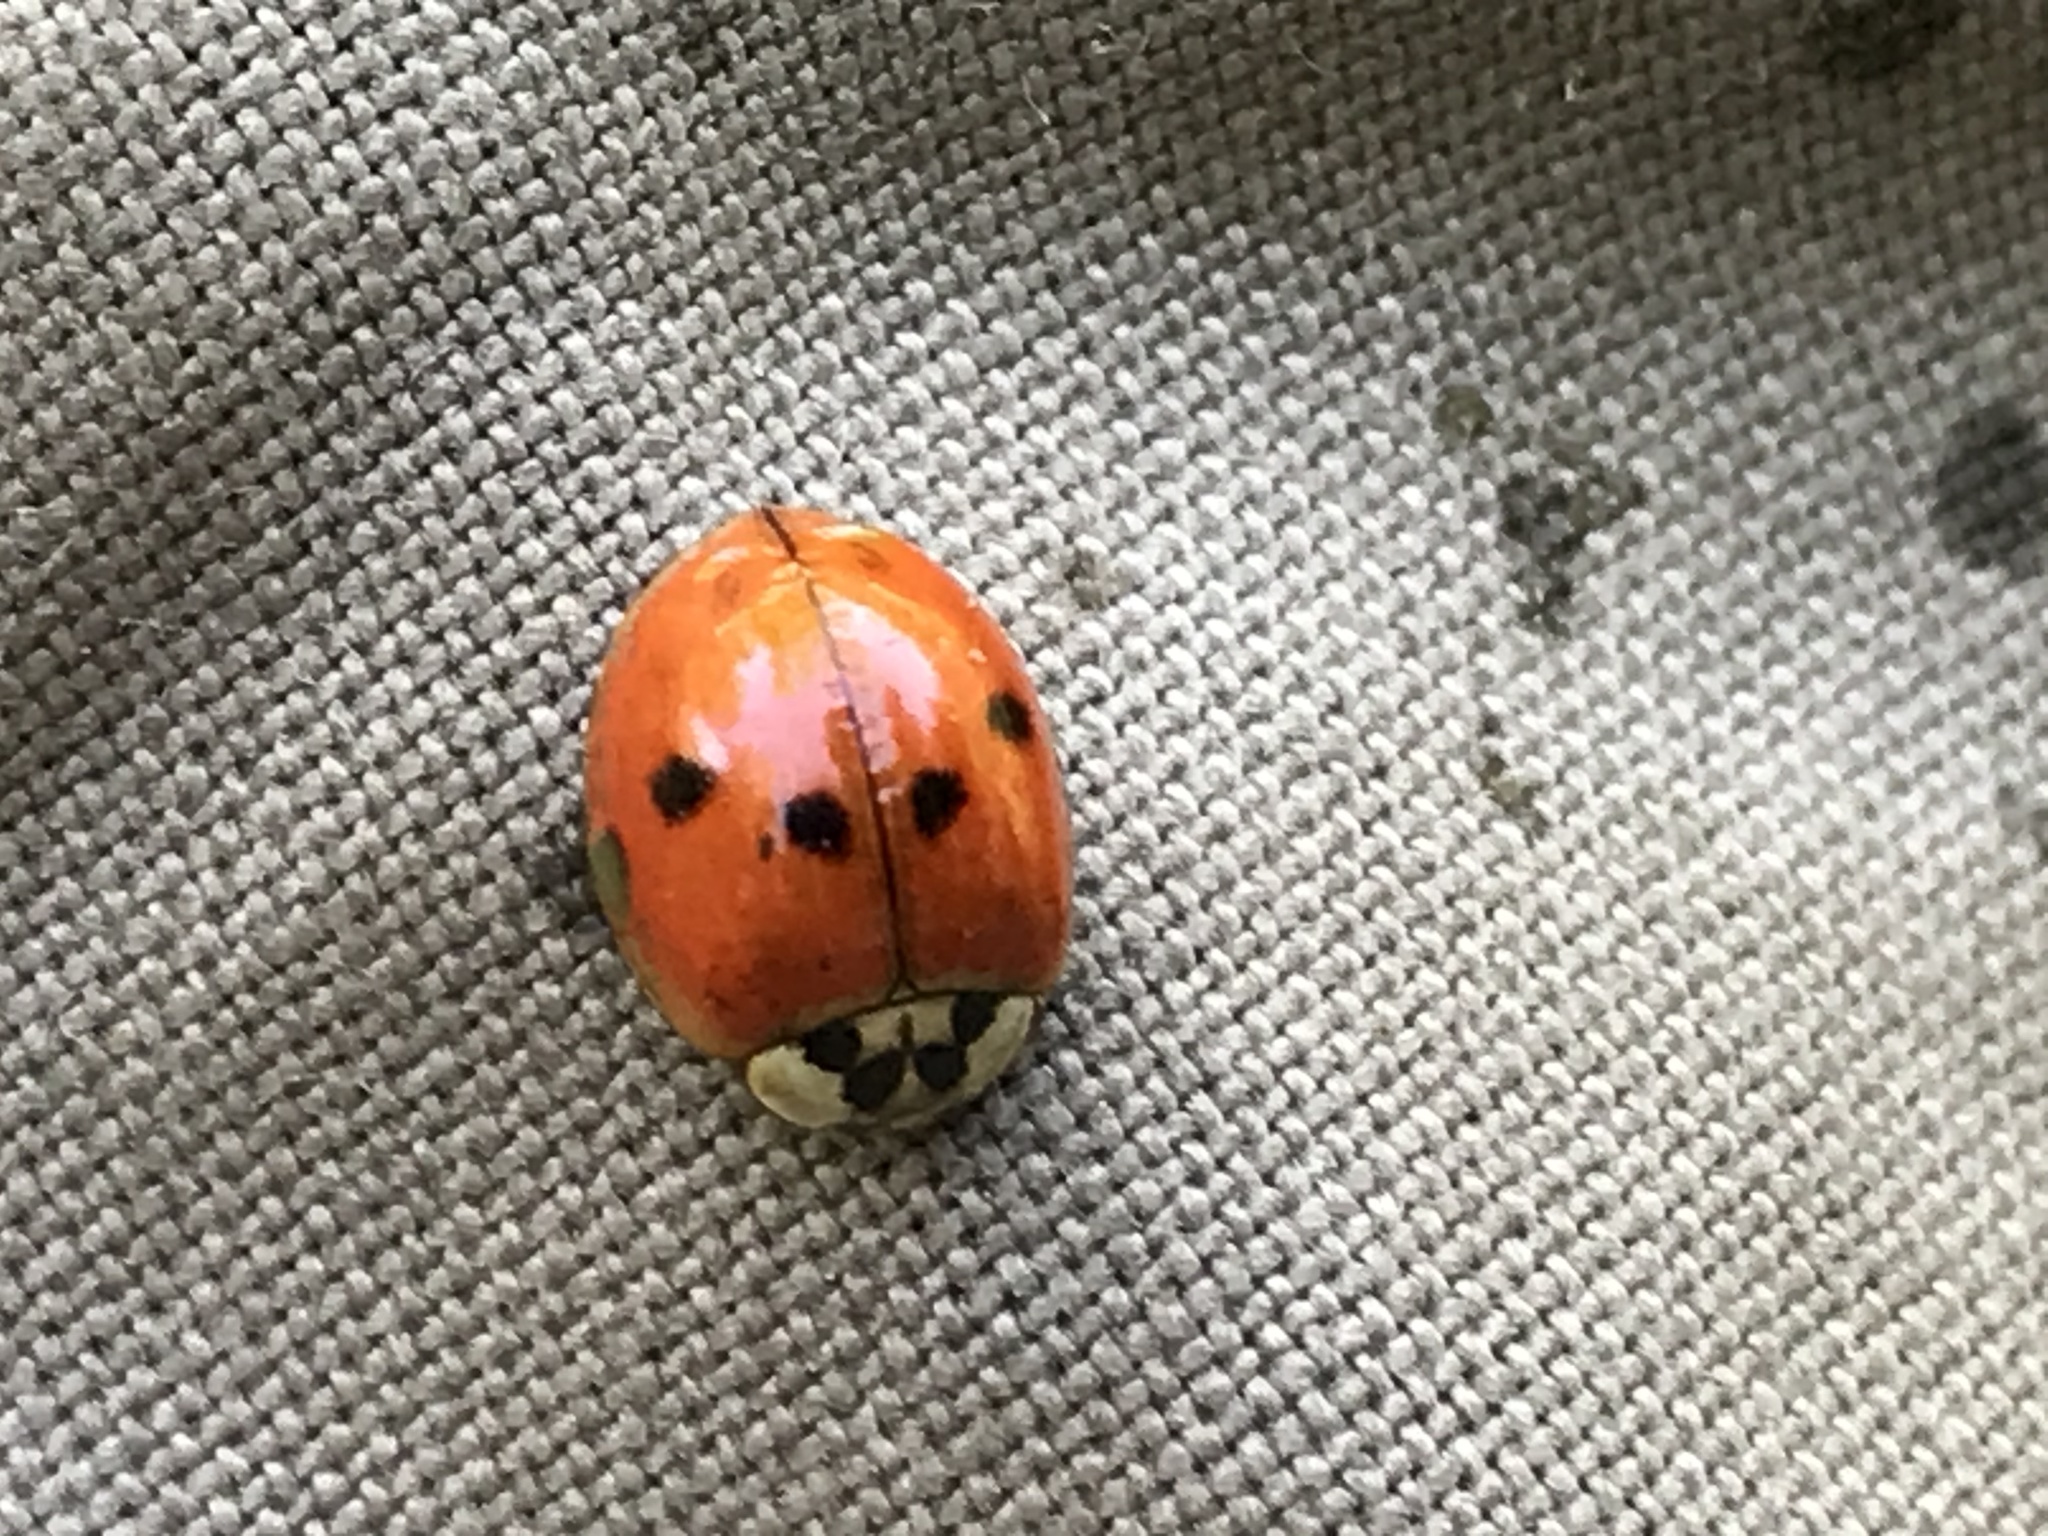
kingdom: Animalia
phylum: Arthropoda
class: Insecta
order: Coleoptera
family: Coccinellidae
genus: Harmonia
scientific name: Harmonia axyridis
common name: Harlequin ladybird
